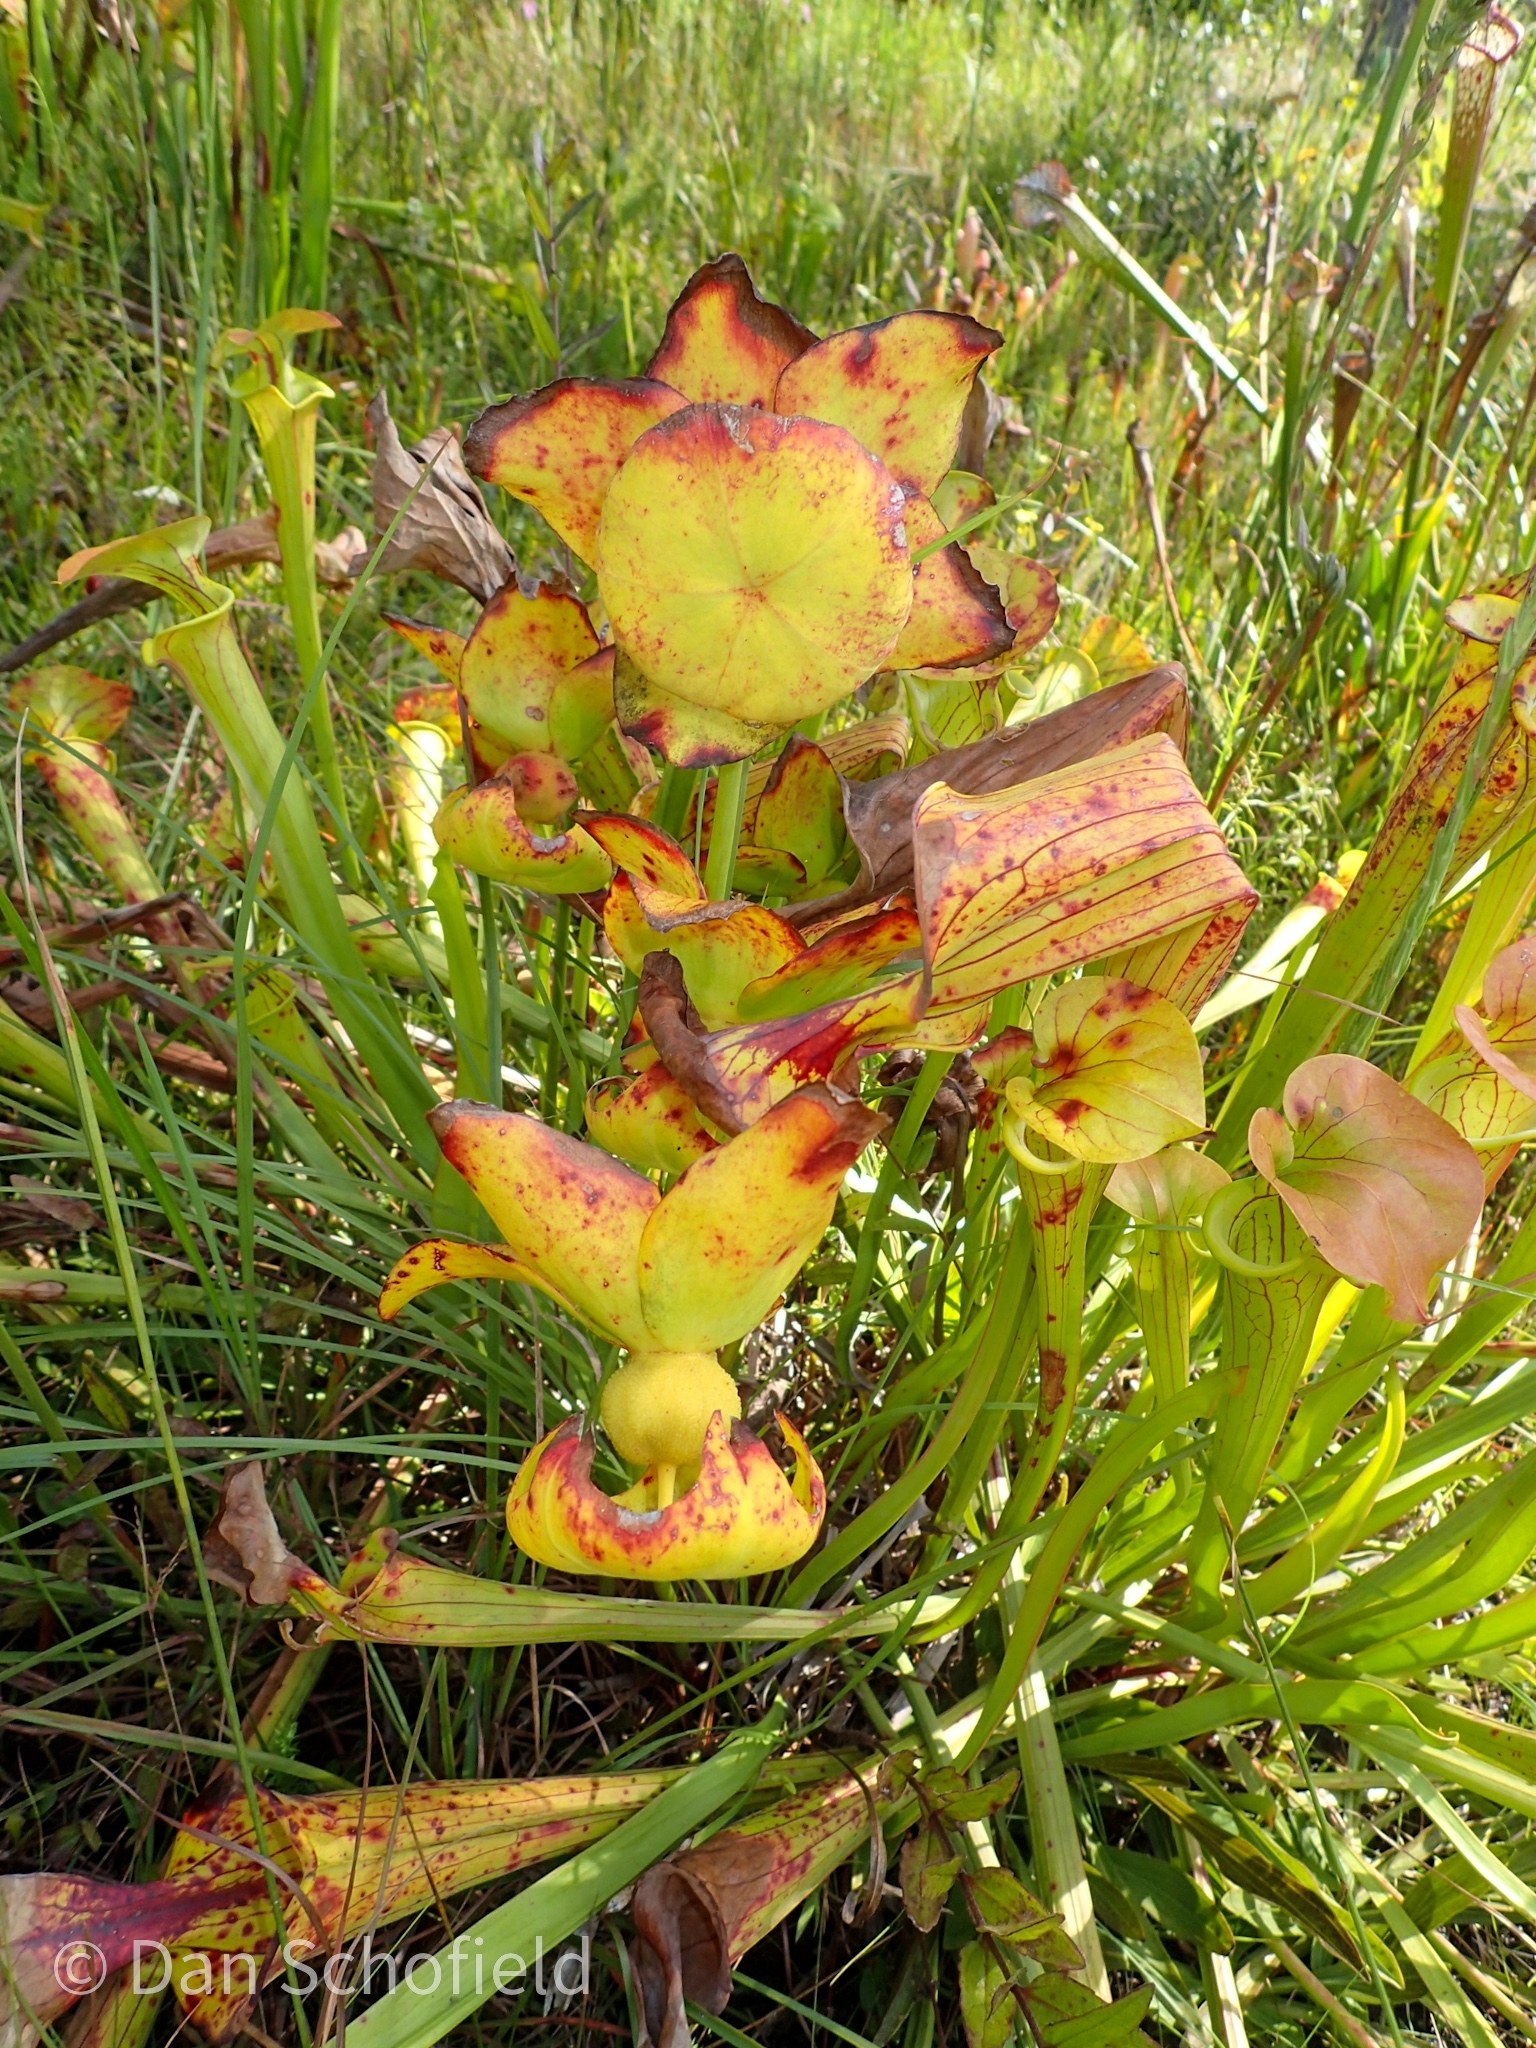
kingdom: Plantae
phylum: Tracheophyta
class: Magnoliopsida
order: Ericales
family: Sarraceniaceae
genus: Sarracenia
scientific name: Sarracenia flava
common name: Trumpets
